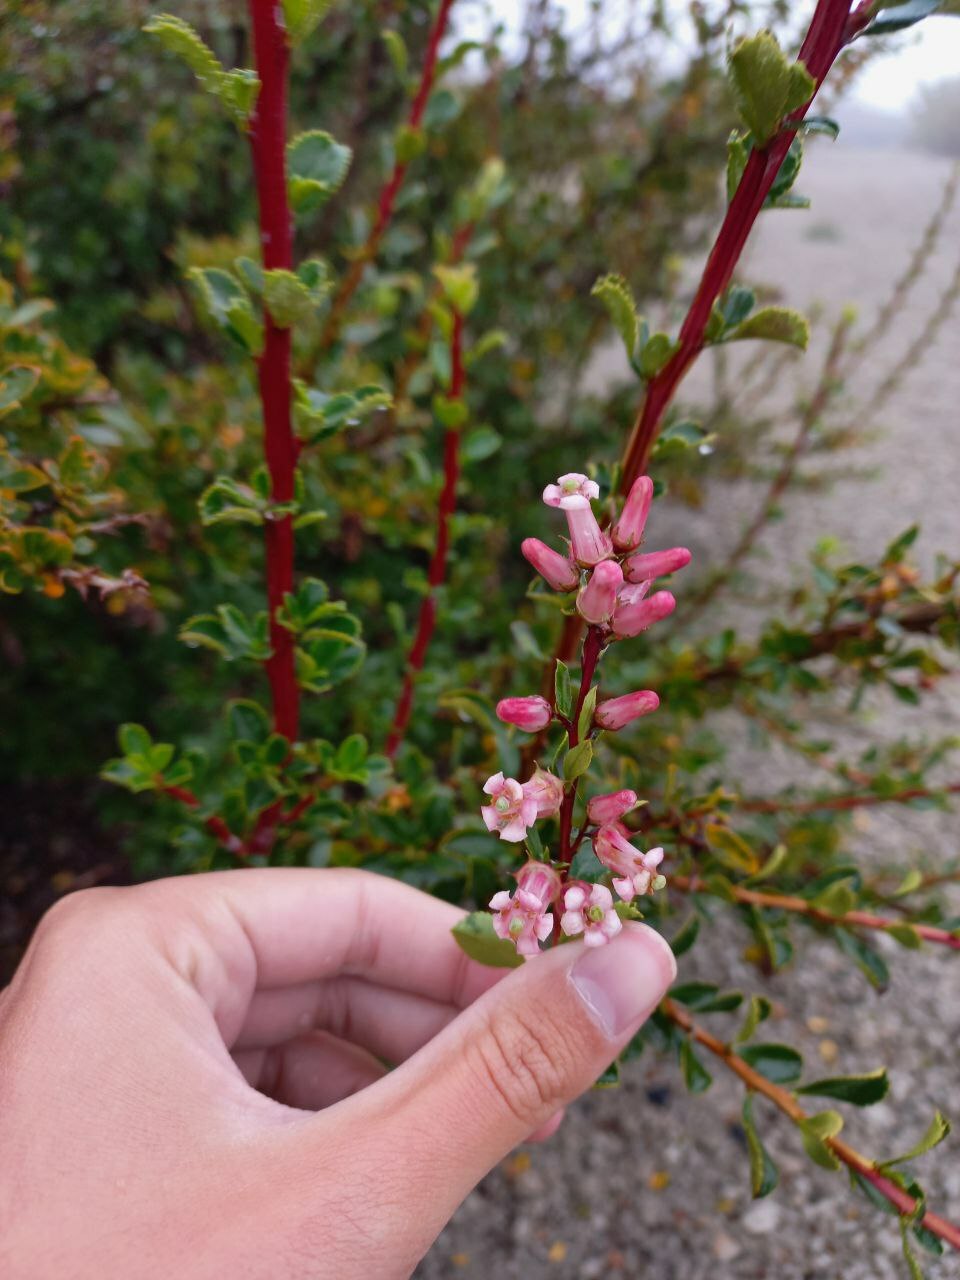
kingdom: Plantae
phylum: Tracheophyta
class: Magnoliopsida
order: Escalloniales
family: Escalloniaceae
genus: Escallonia
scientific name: Escallonia alpina
